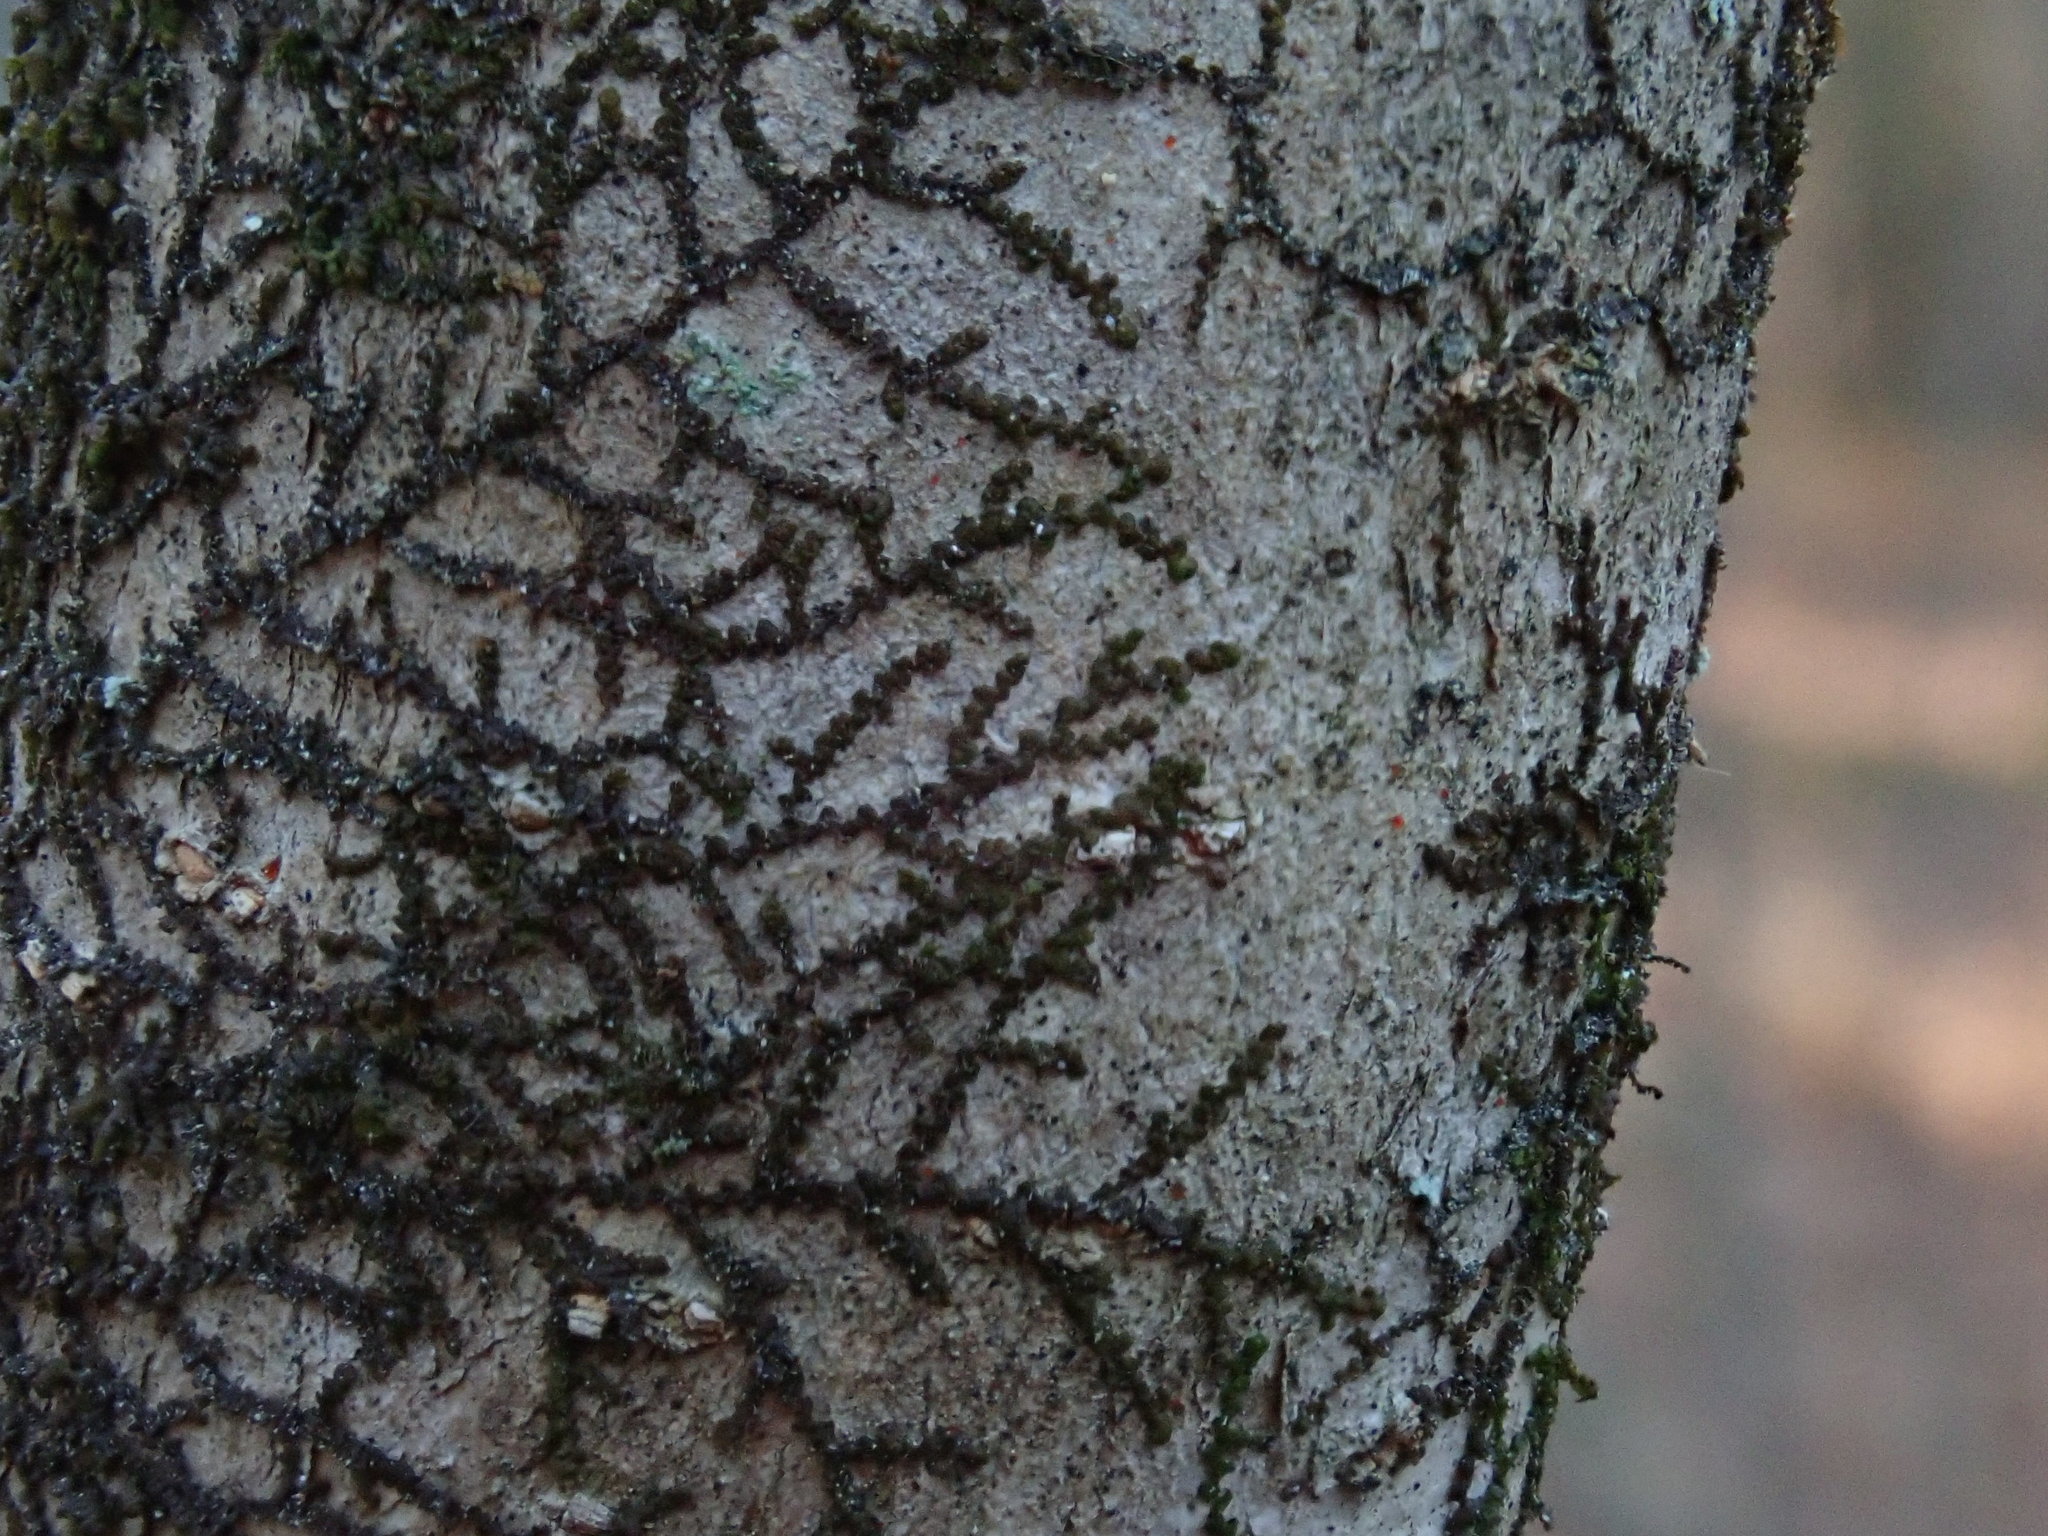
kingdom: Plantae
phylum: Marchantiophyta
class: Jungermanniopsida
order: Porellales
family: Frullaniaceae
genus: Frullania
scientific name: Frullania
